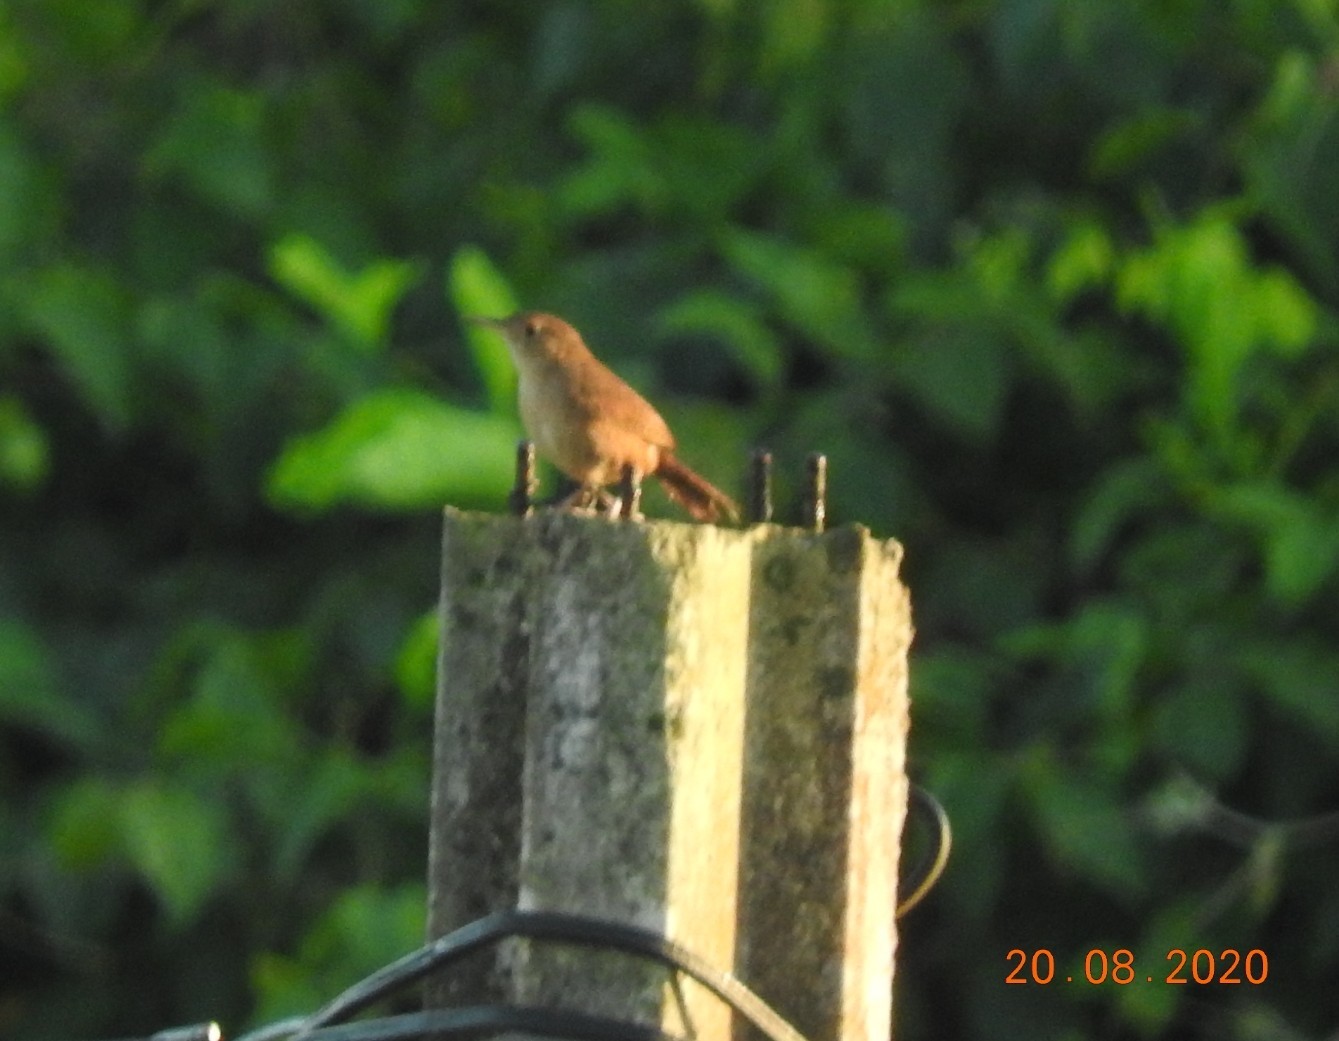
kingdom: Animalia
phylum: Chordata
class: Aves
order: Passeriformes
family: Troglodytidae
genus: Troglodytes
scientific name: Troglodytes aedon
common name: House wren
